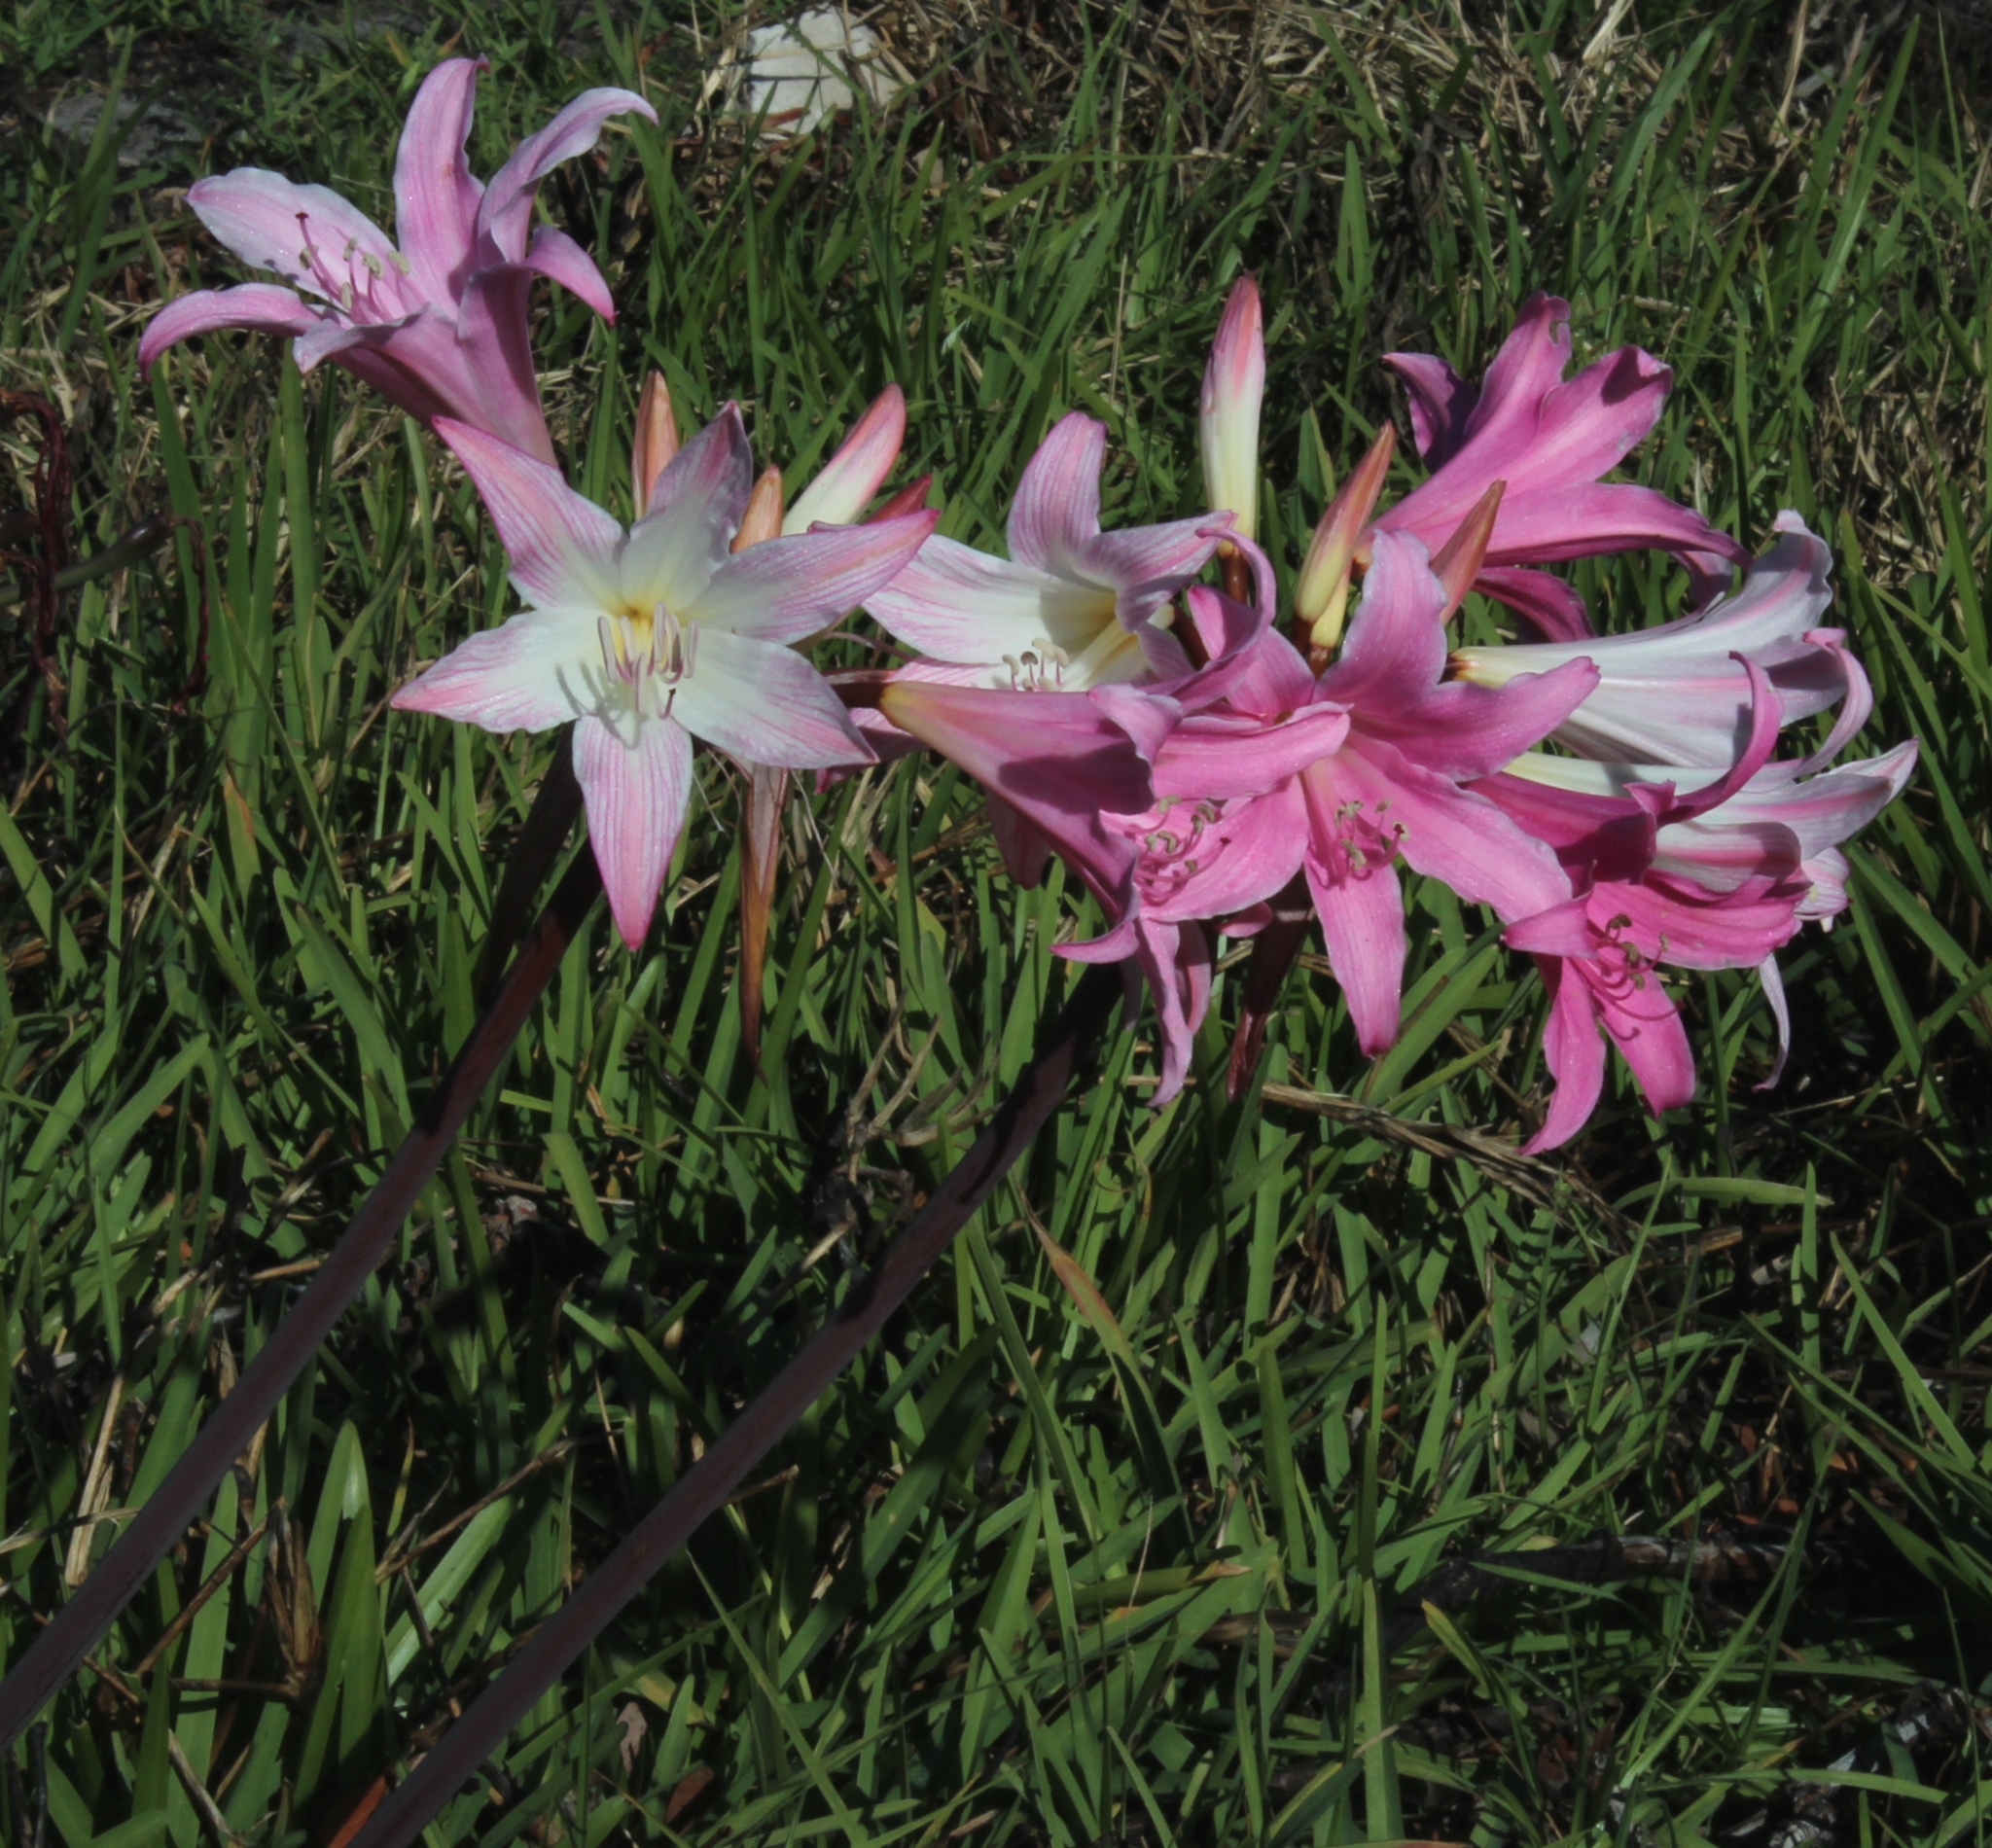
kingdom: Plantae
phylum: Tracheophyta
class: Liliopsida
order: Asparagales
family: Amaryllidaceae
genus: Amaryllis
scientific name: Amaryllis belladonna
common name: Jersey lily
